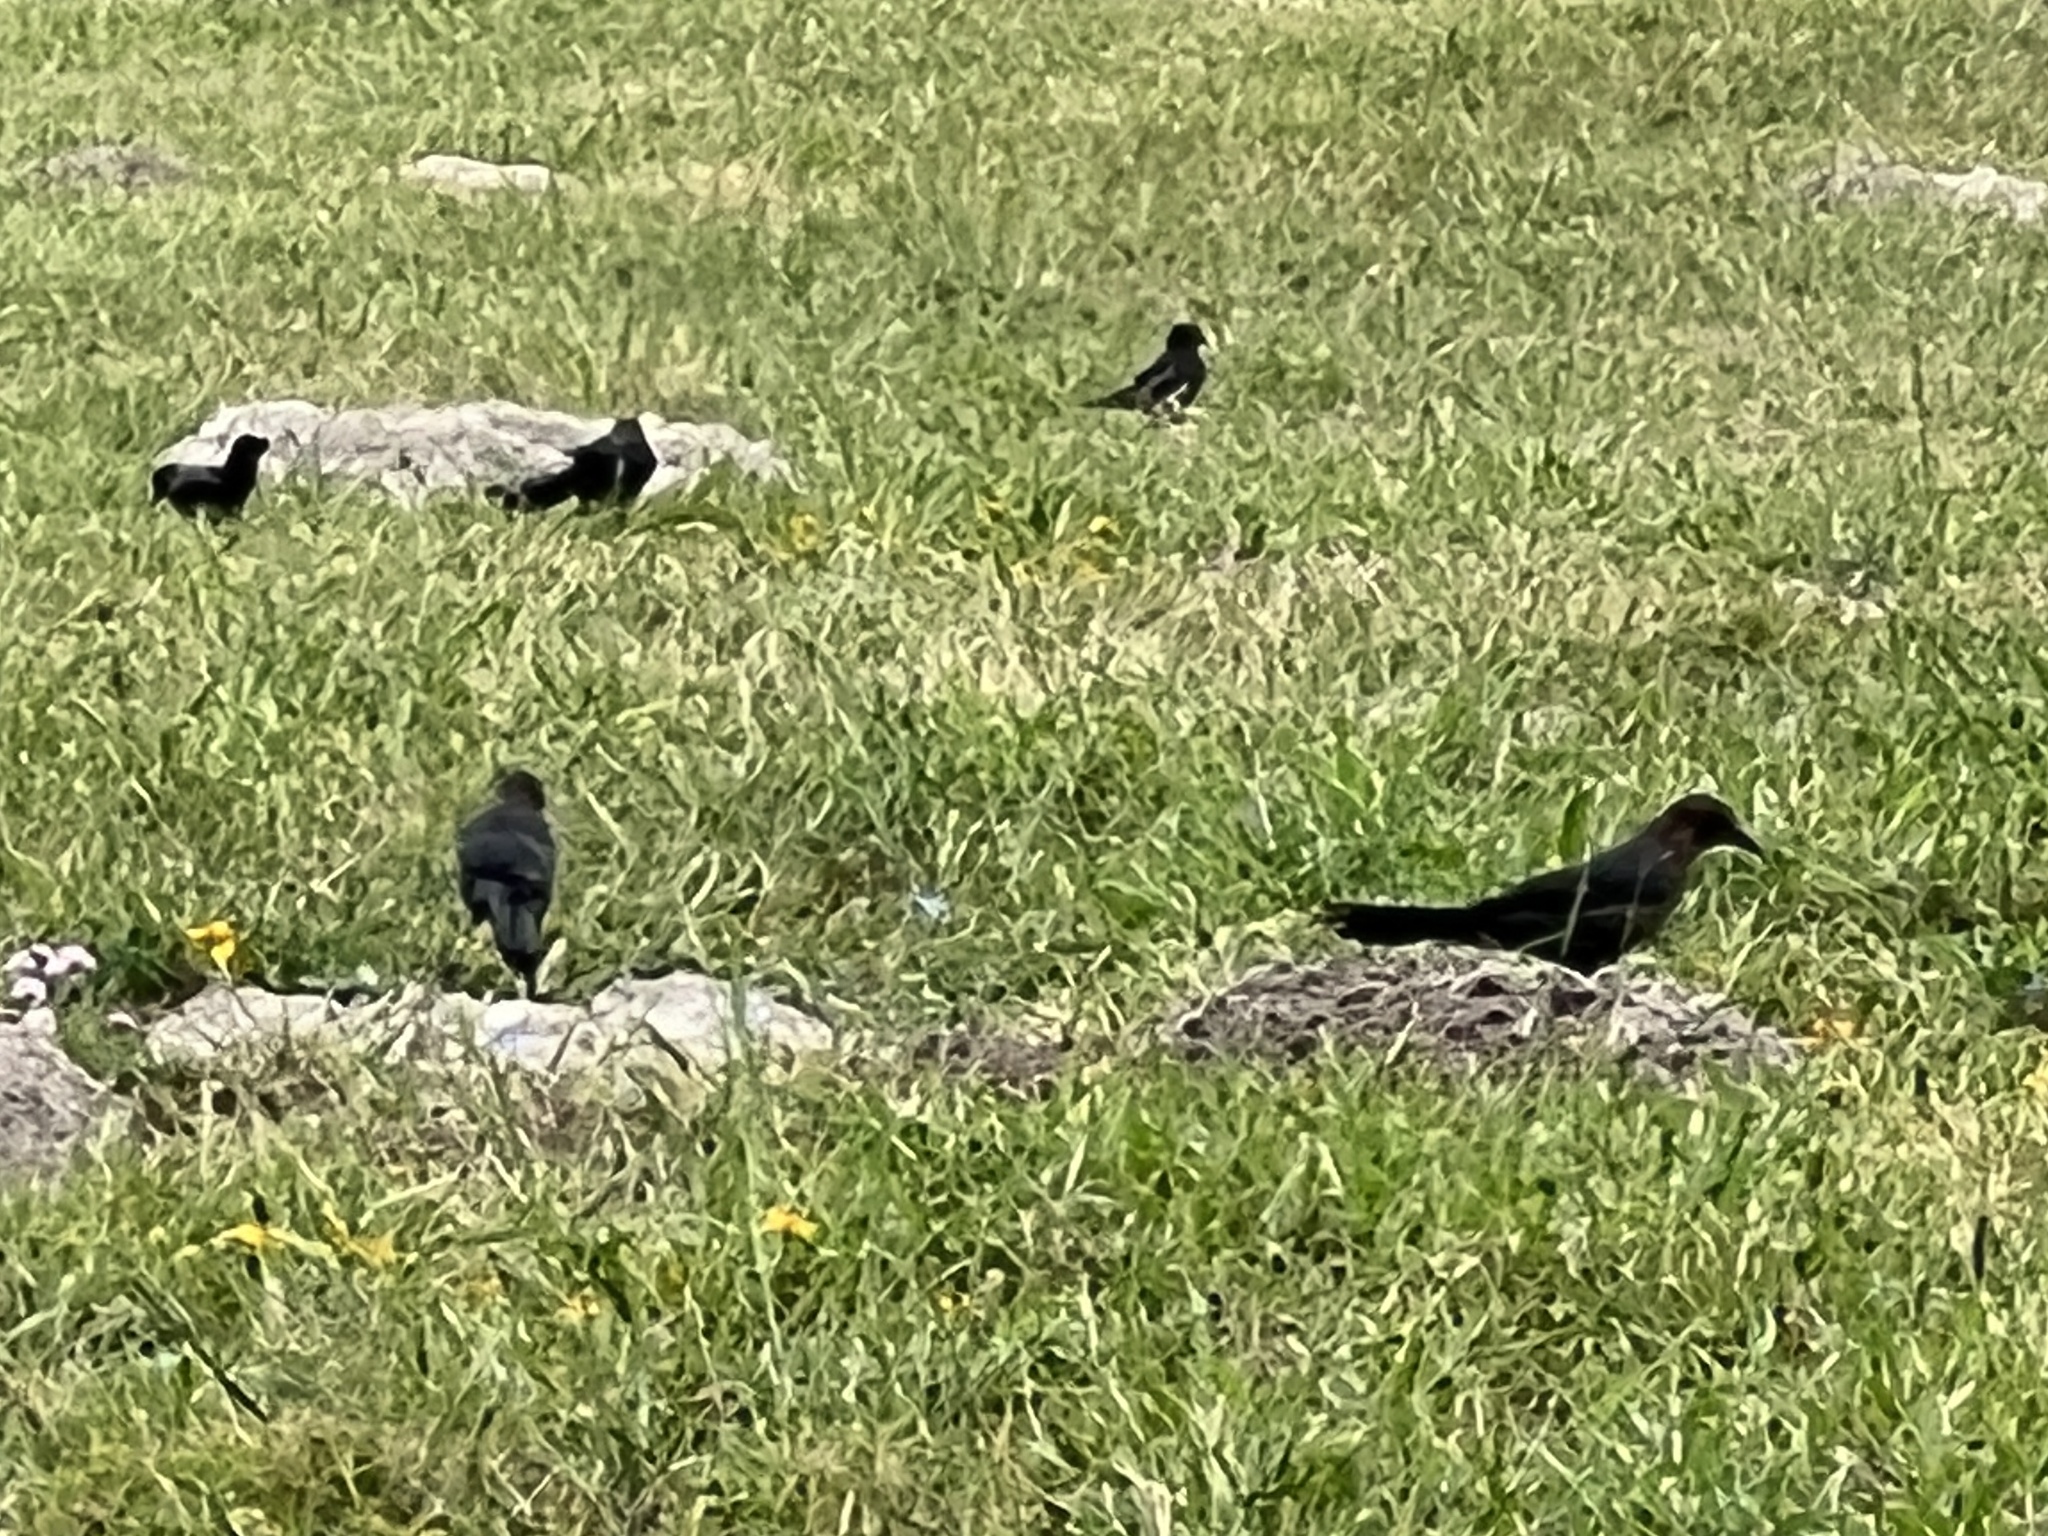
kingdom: Animalia
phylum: Chordata
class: Aves
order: Passeriformes
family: Icteridae
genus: Quiscalus
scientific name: Quiscalus mexicanus
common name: Great-tailed grackle
